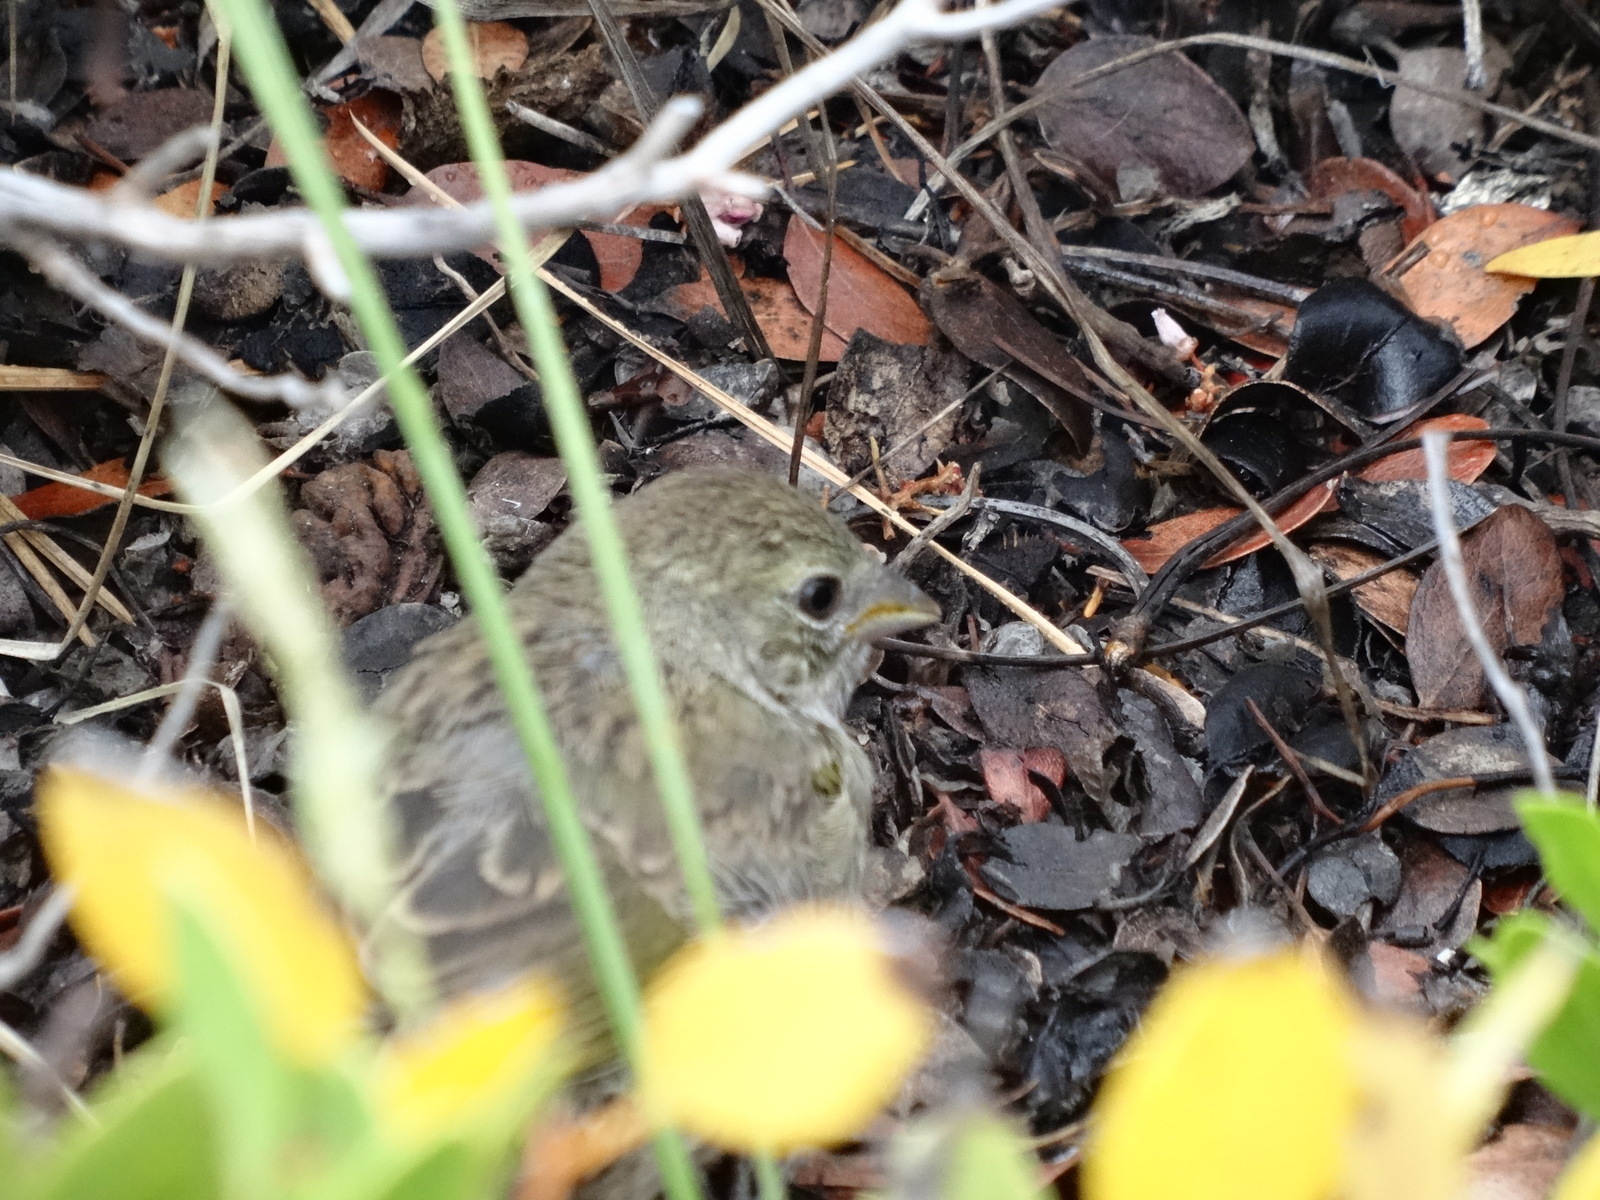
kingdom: Animalia
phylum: Chordata
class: Aves
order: Passeriformes
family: Passerellidae
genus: Pipilo
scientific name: Pipilo chlorurus
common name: Green-tailed towhee
